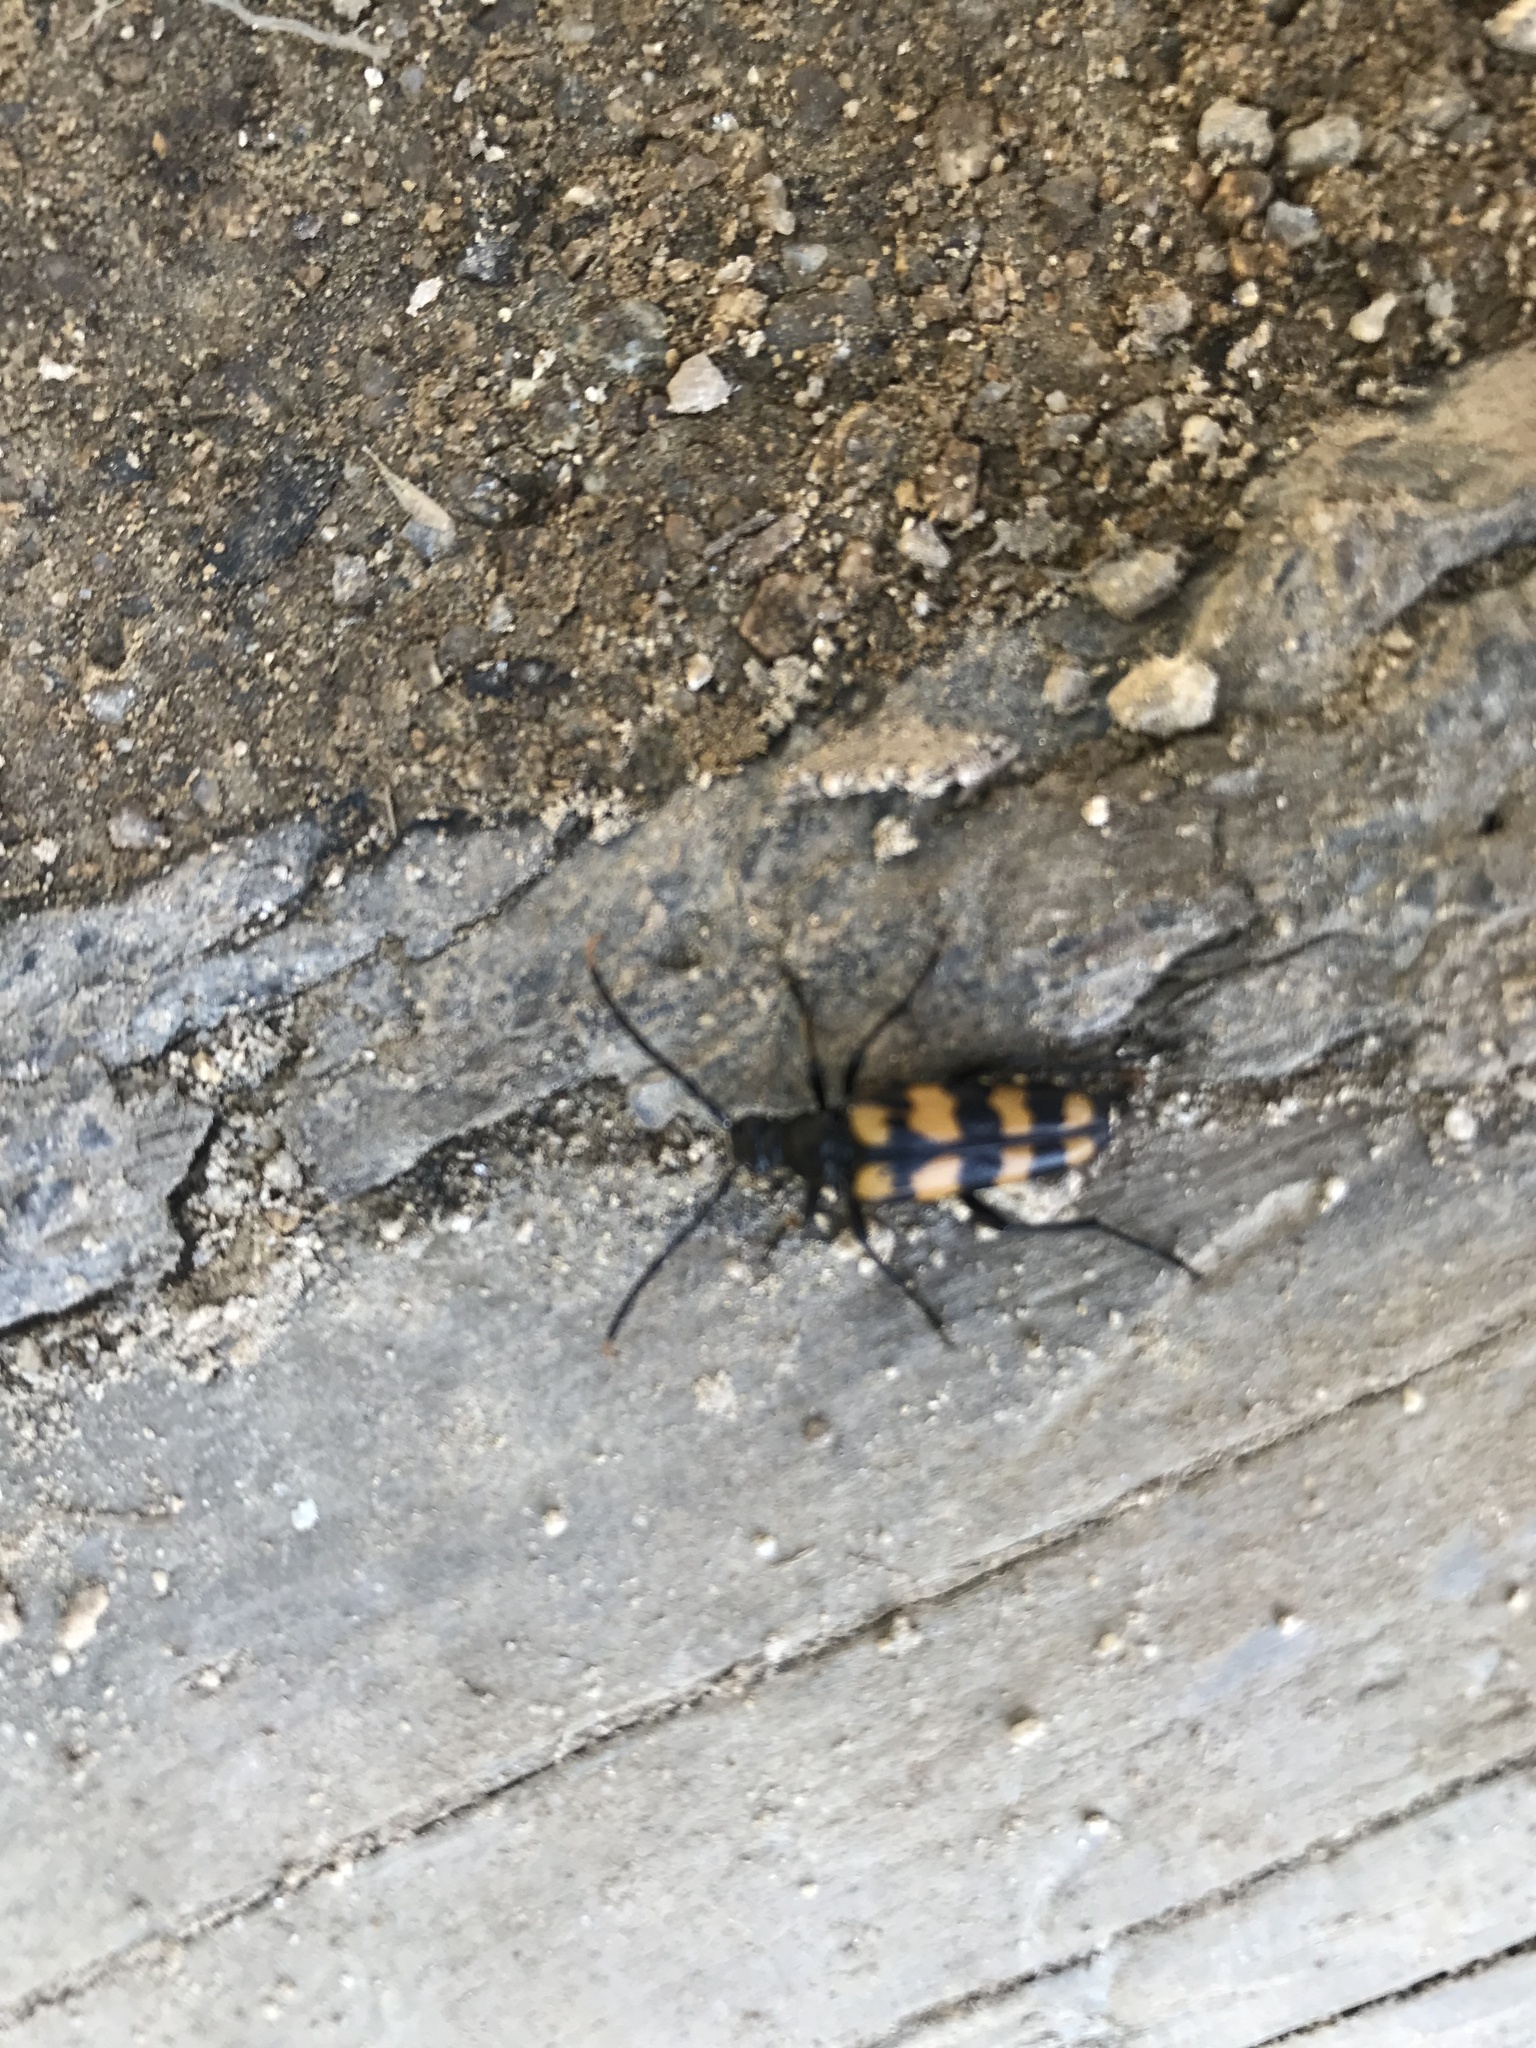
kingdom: Animalia
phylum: Arthropoda
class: Insecta
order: Coleoptera
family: Cerambycidae
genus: Leptura
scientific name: Leptura quadrifasciata
